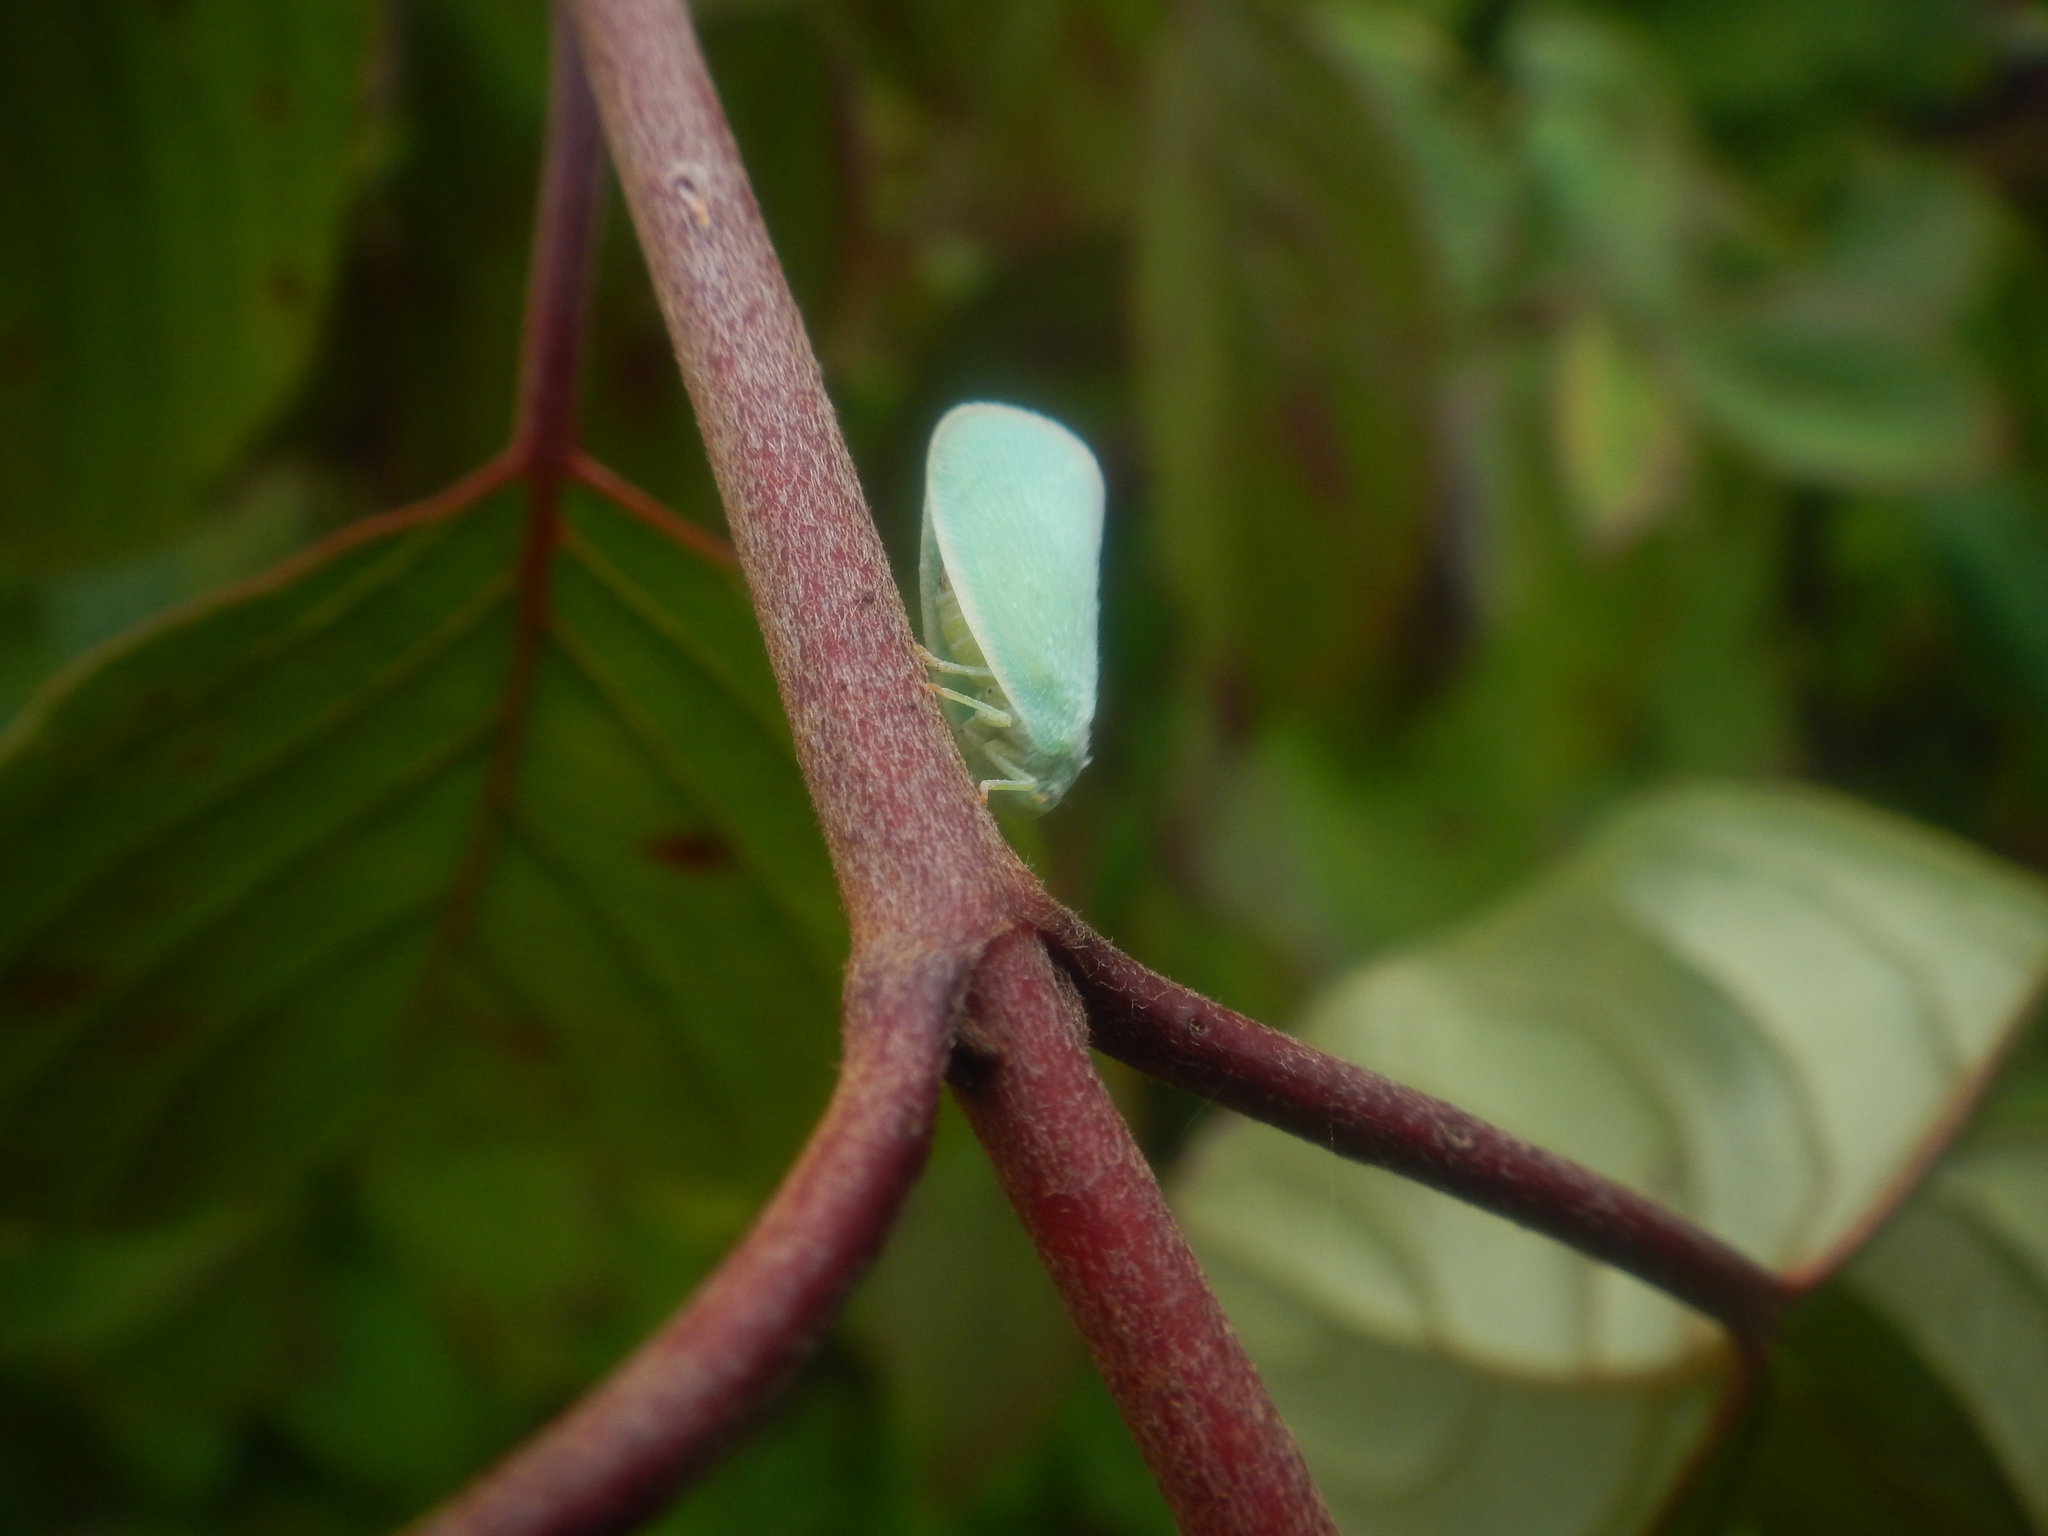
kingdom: Animalia
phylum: Arthropoda
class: Insecta
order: Hemiptera
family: Flatidae
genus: Ormenoides
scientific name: Ormenoides venusta
